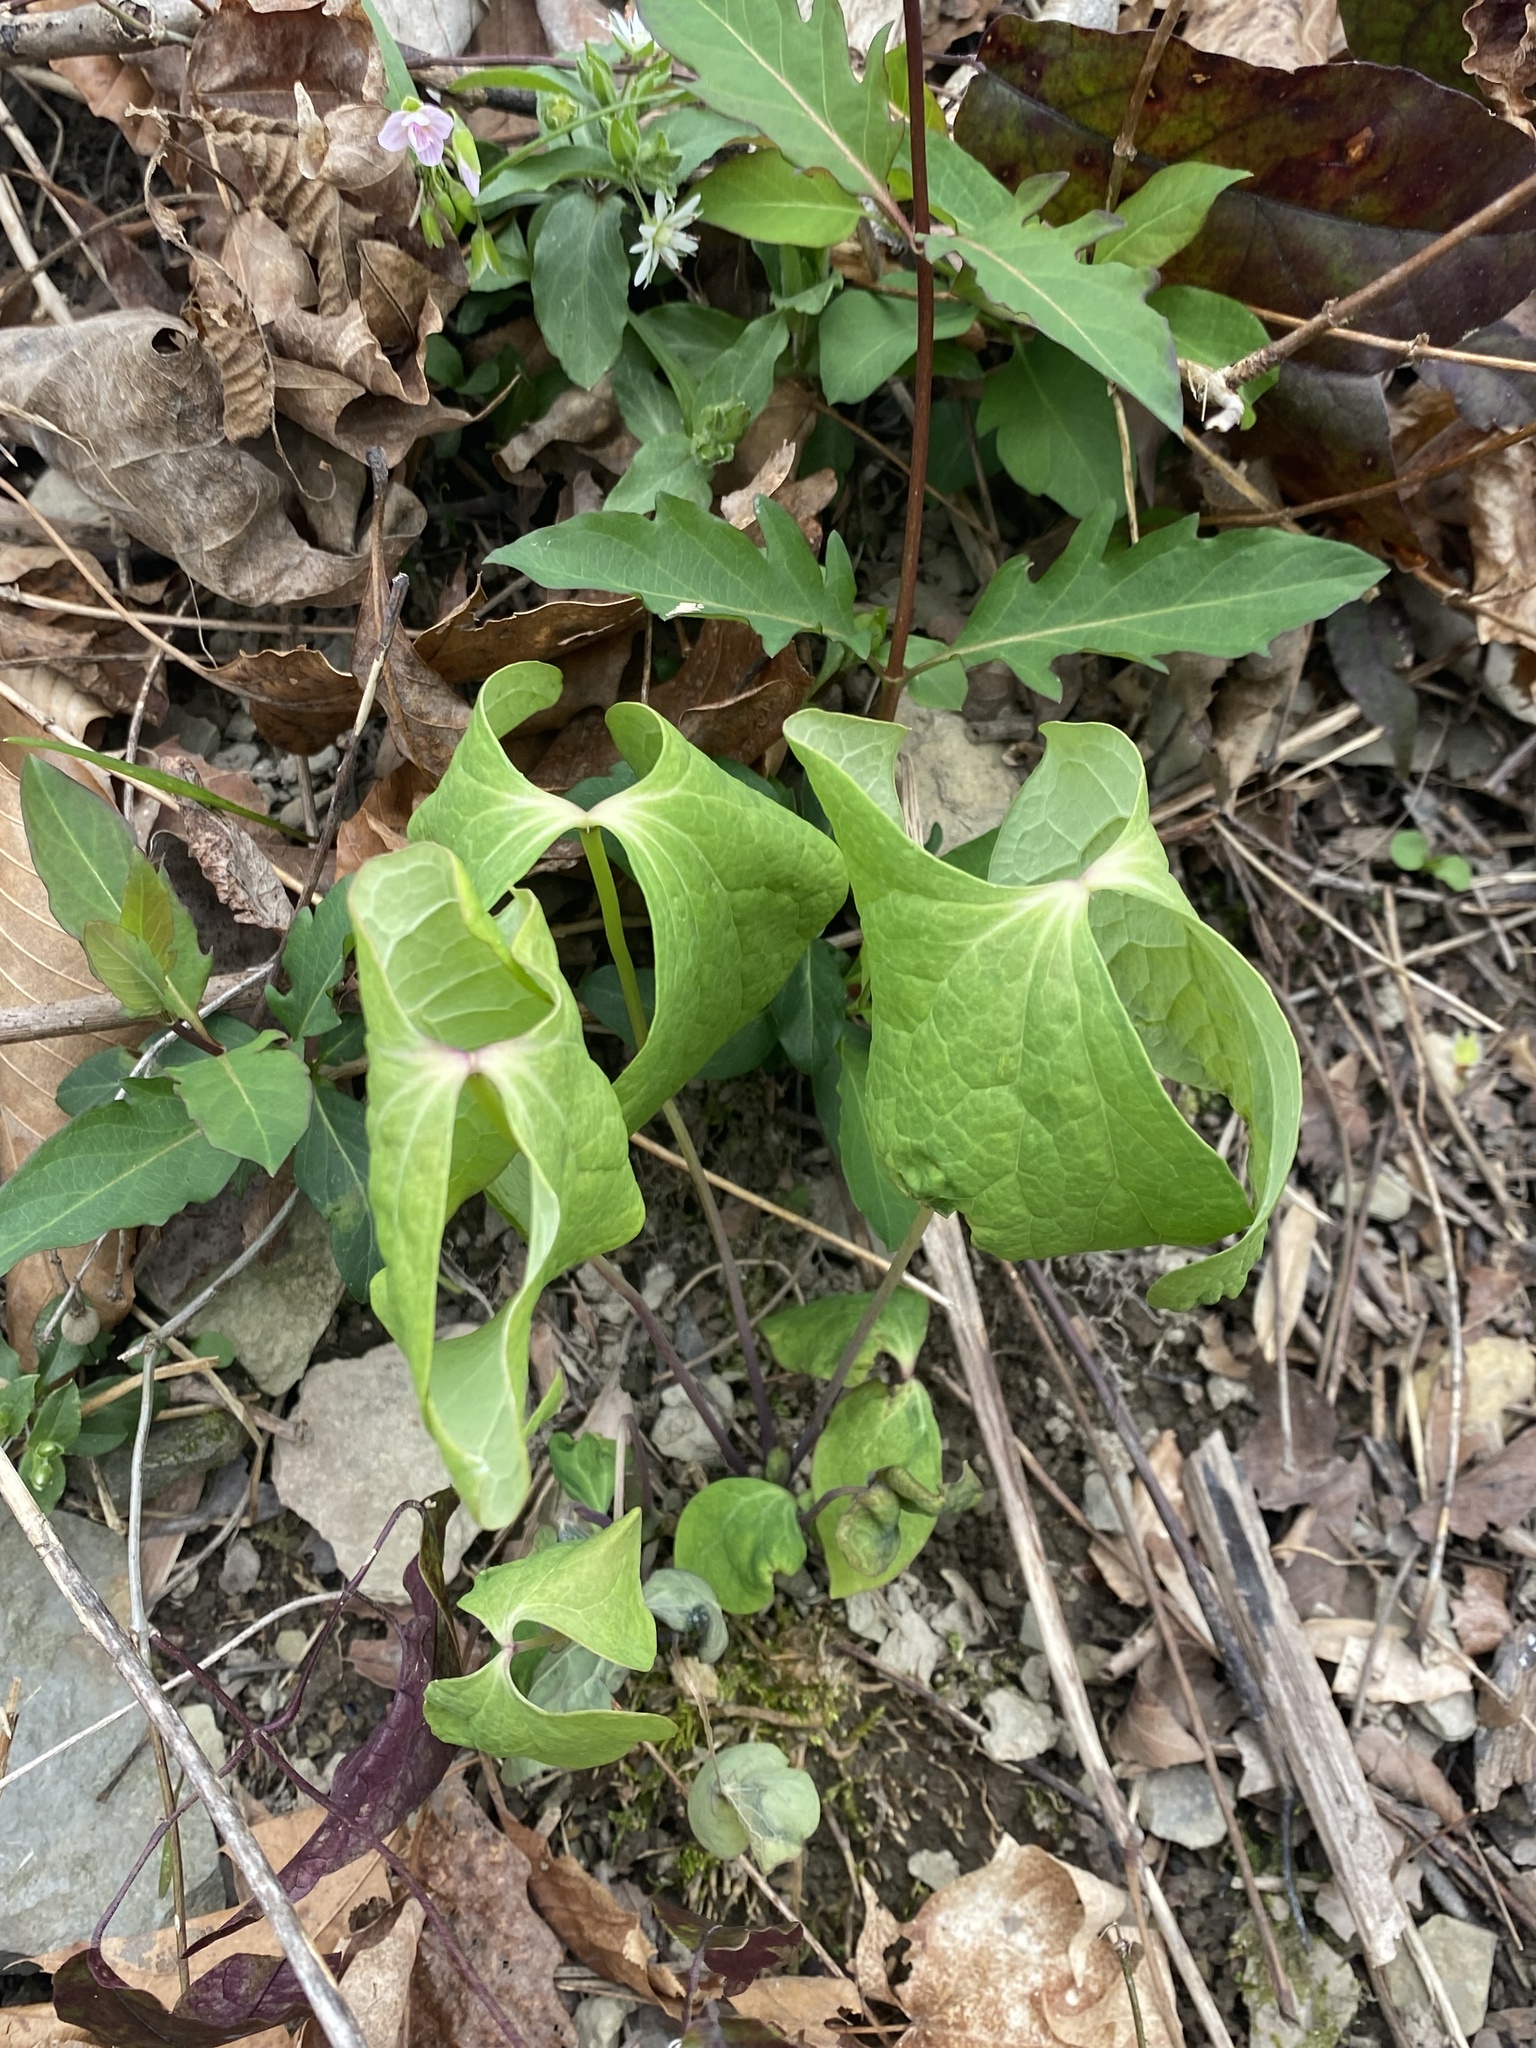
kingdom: Plantae
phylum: Tracheophyta
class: Magnoliopsida
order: Ranunculales
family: Berberidaceae
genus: Jeffersonia
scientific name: Jeffersonia diphylla
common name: Rheumatism-root
